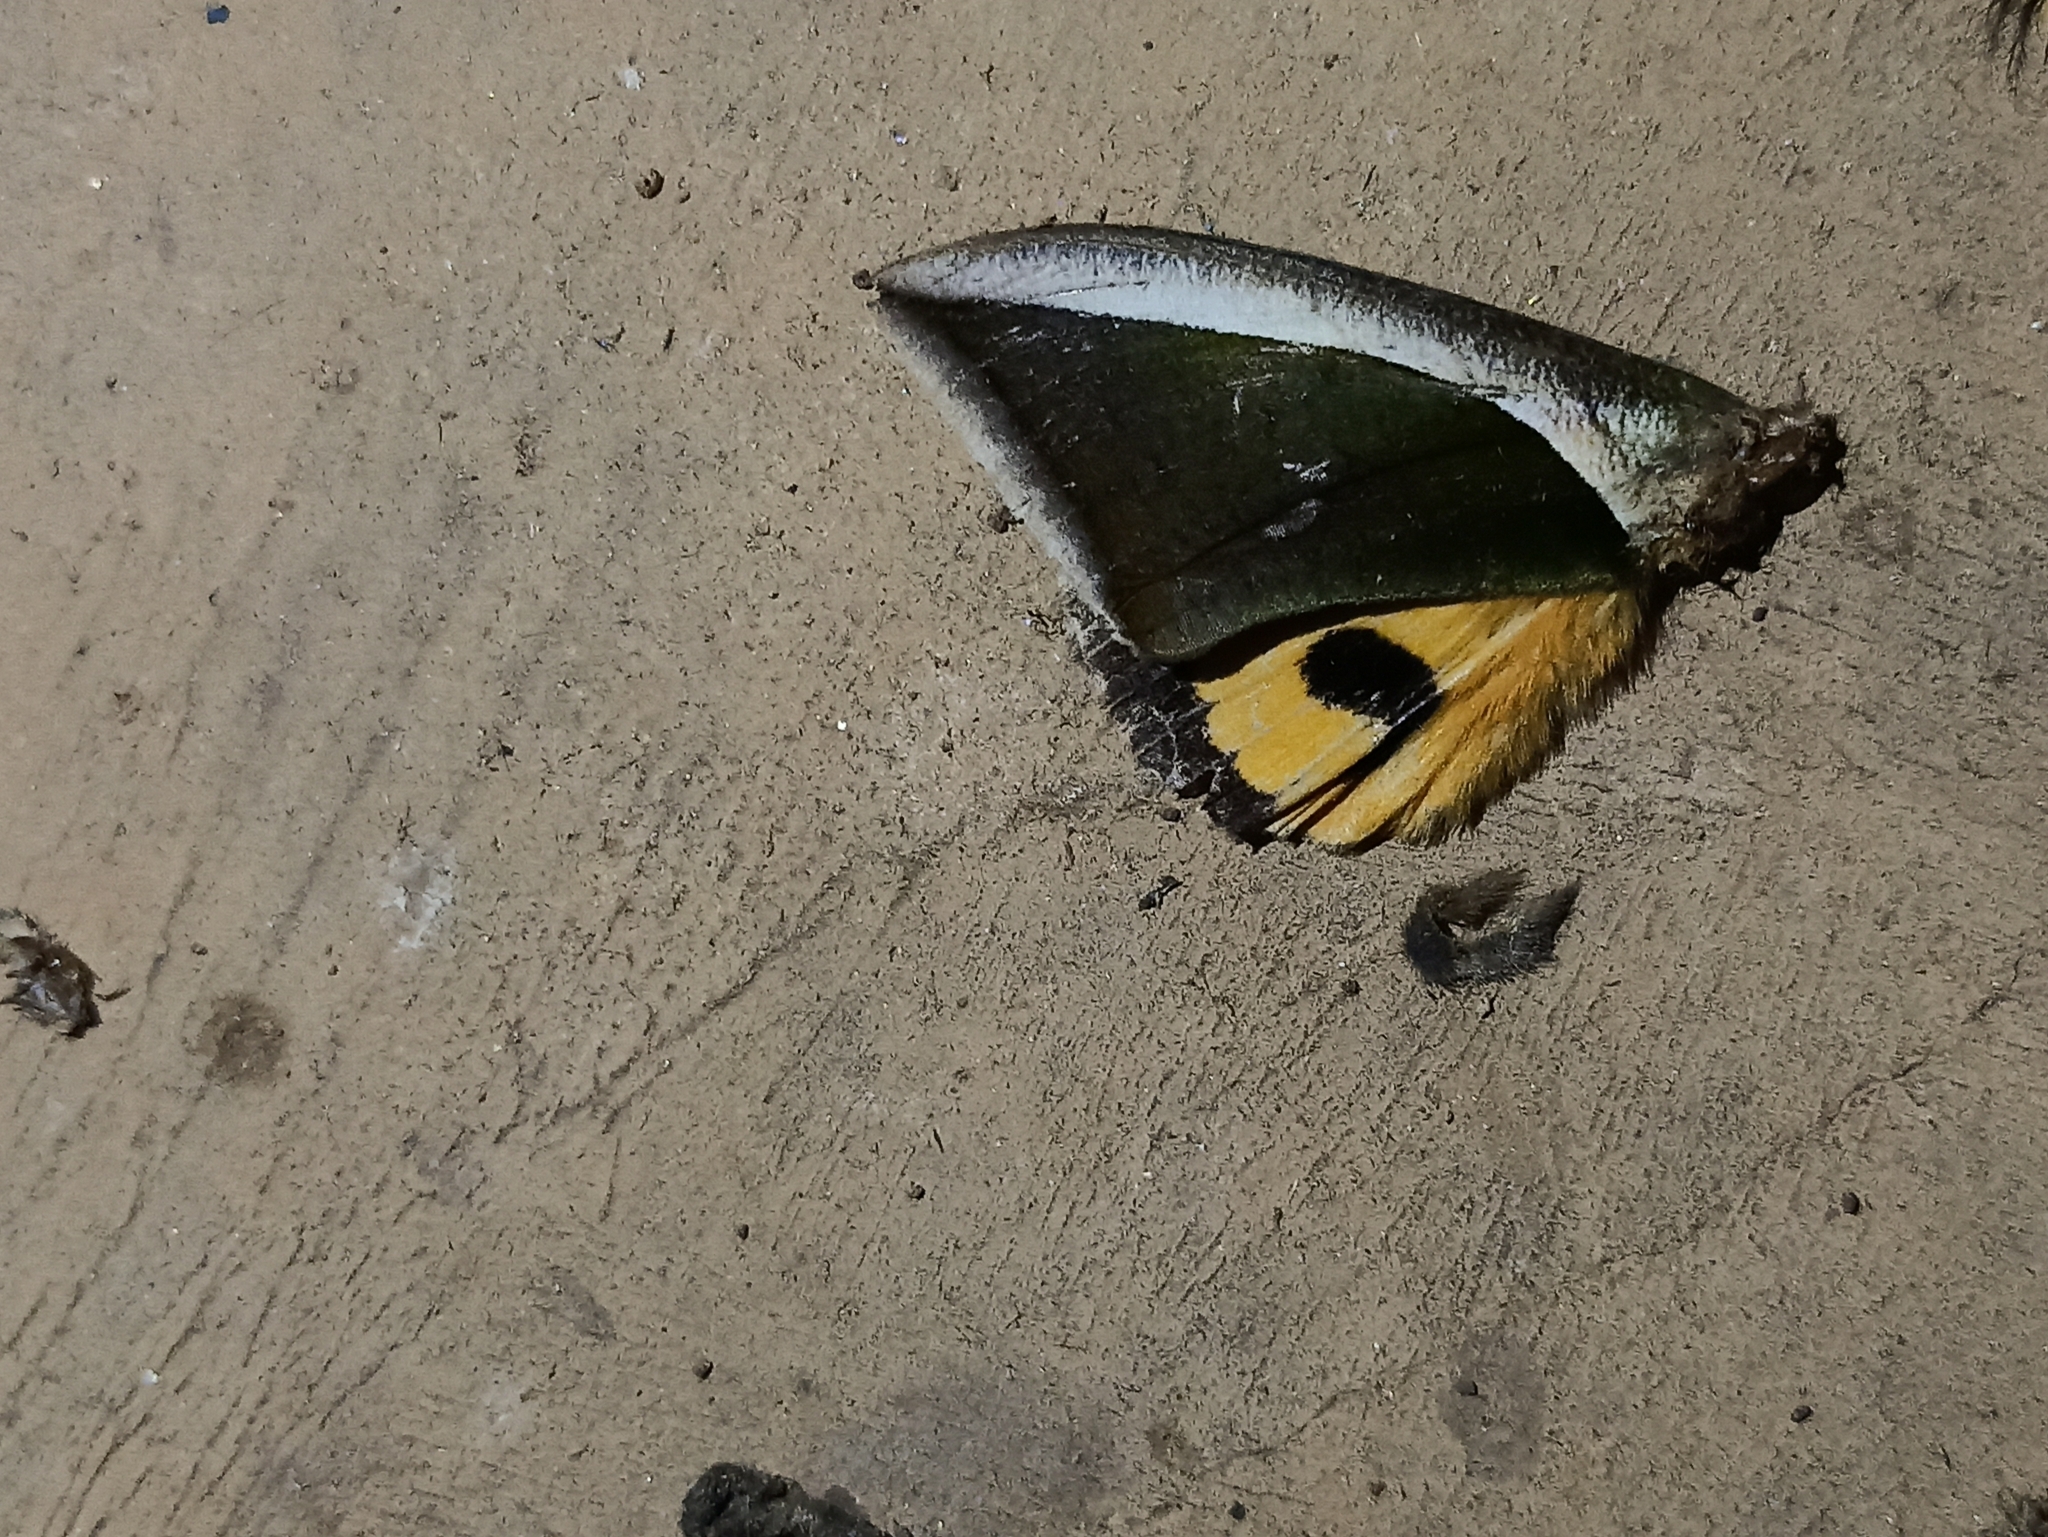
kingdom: Animalia
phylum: Arthropoda
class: Insecta
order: Lepidoptera
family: Erebidae
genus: Eudocima
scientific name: Eudocima salaminia
